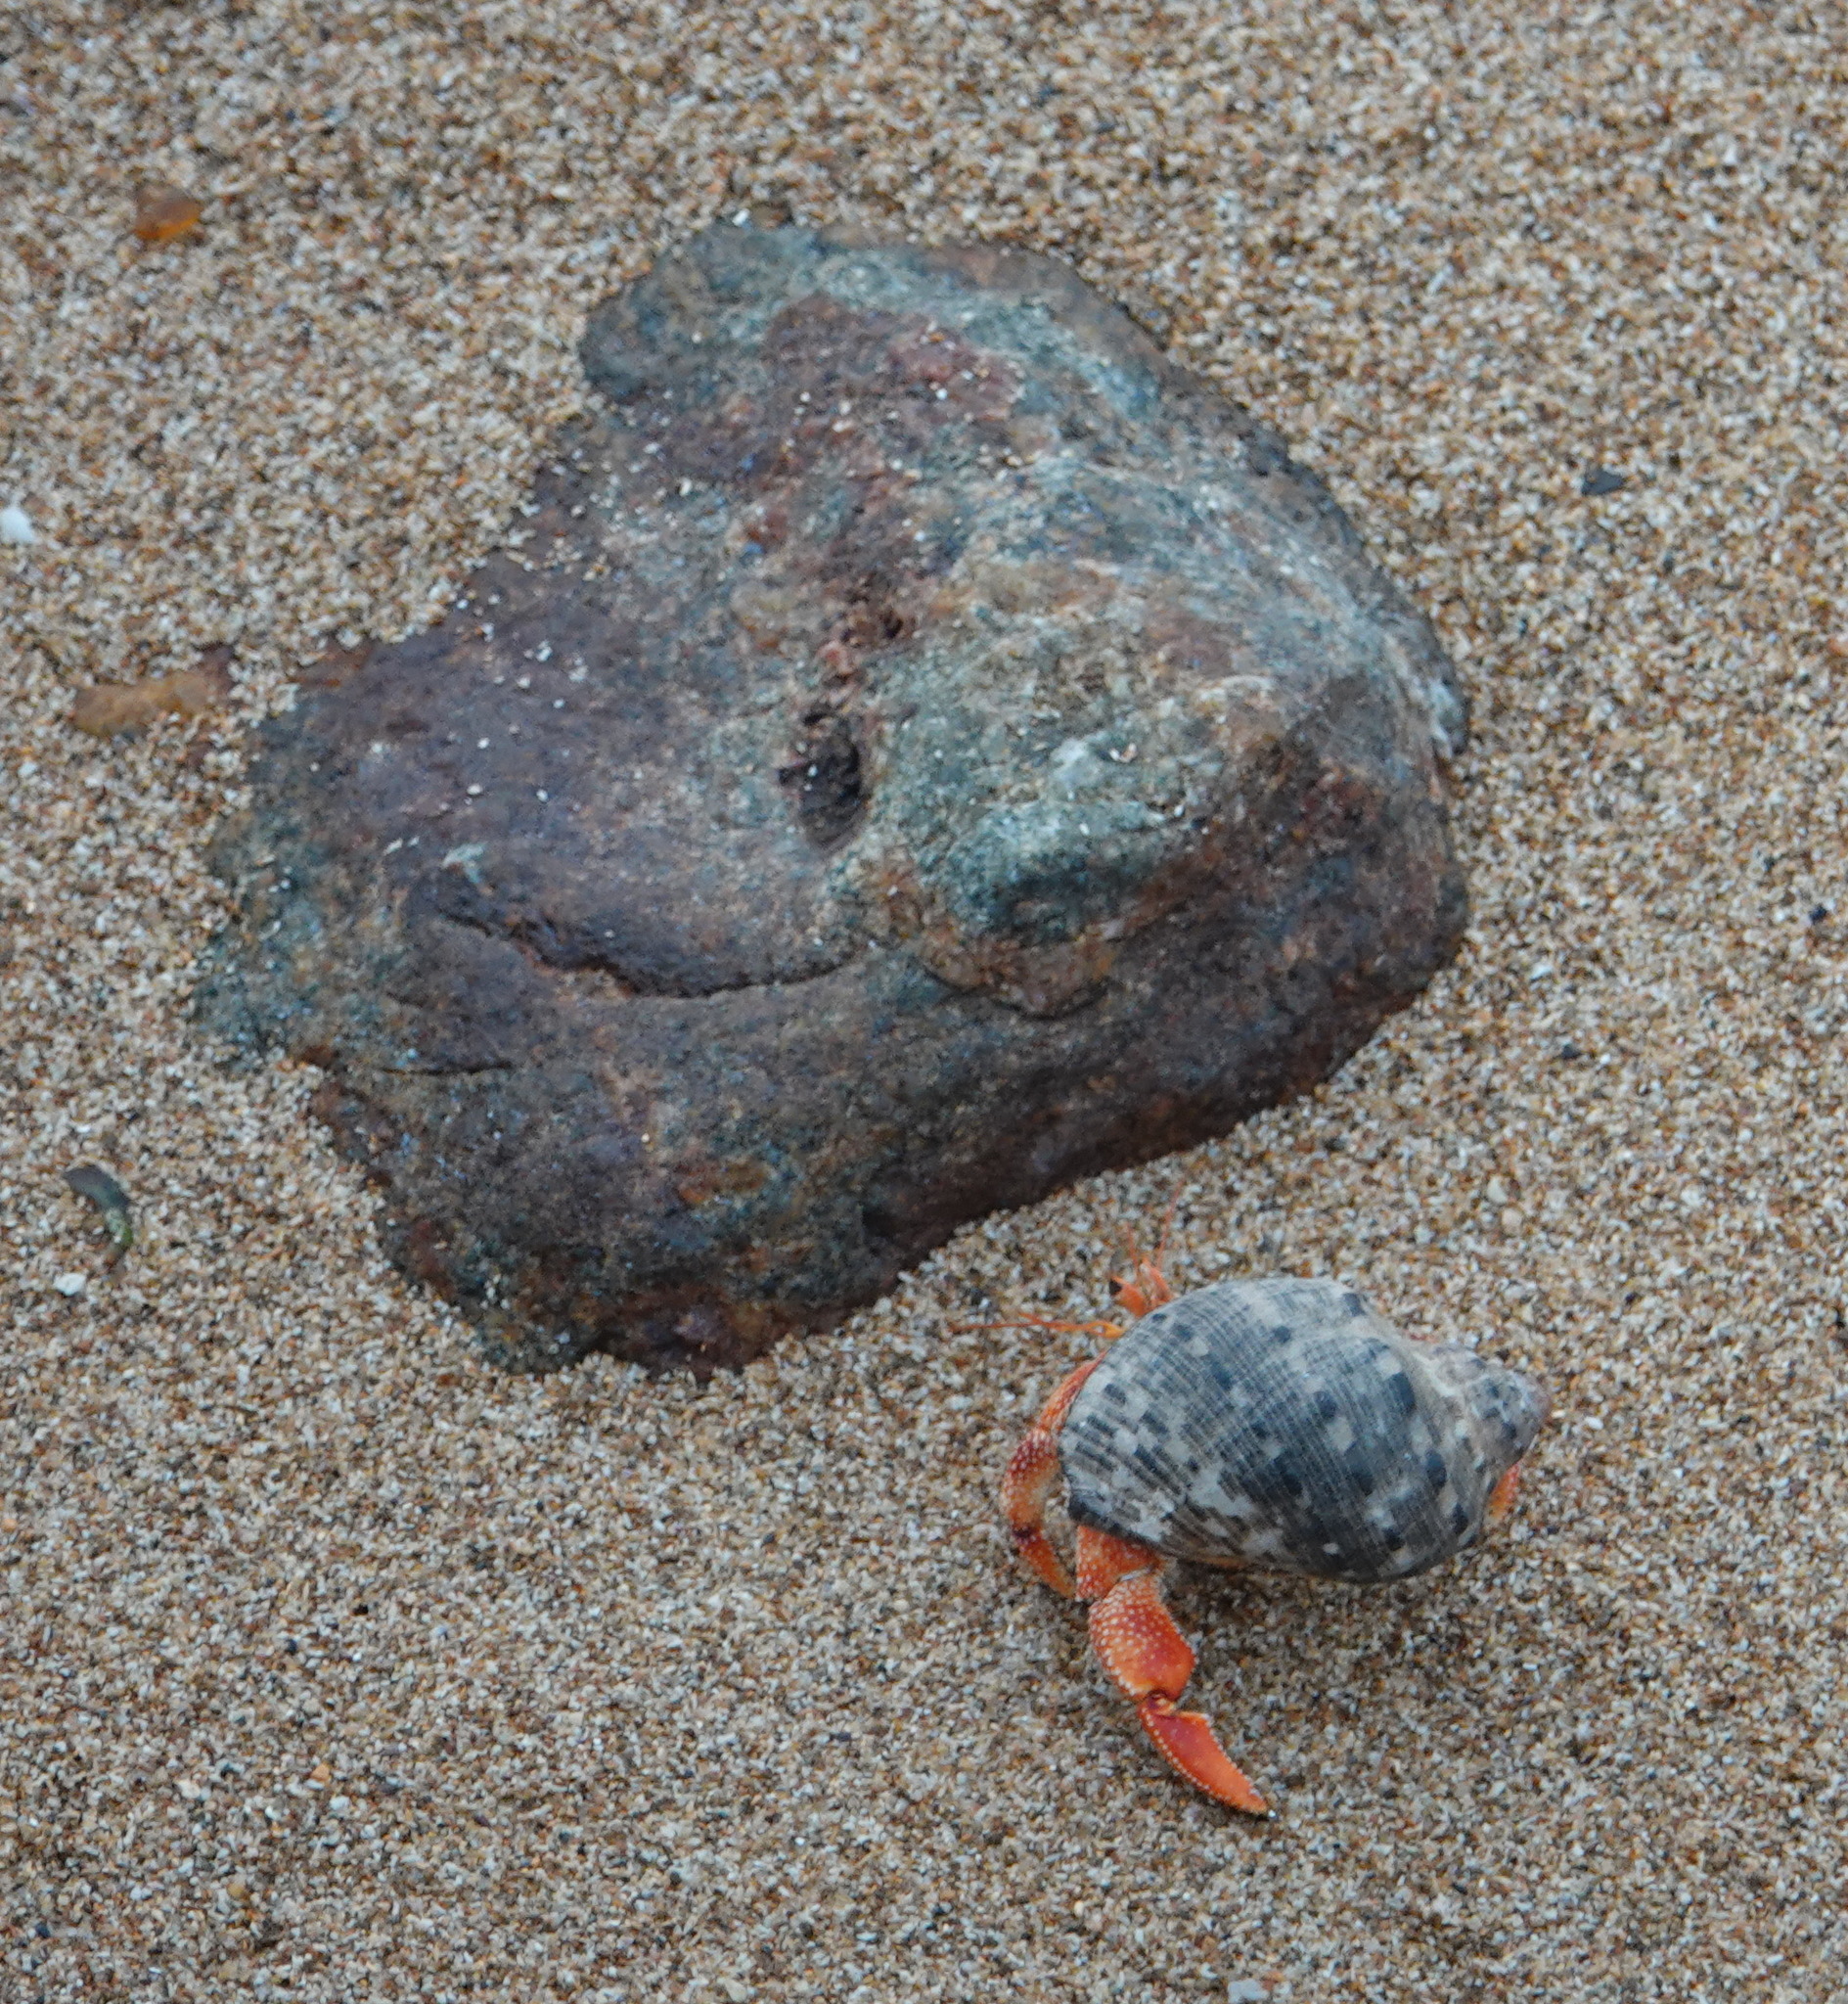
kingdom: Animalia
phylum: Arthropoda
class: Malacostraca
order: Decapoda
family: Coenobitidae
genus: Coenobita
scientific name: Coenobita perlatus
